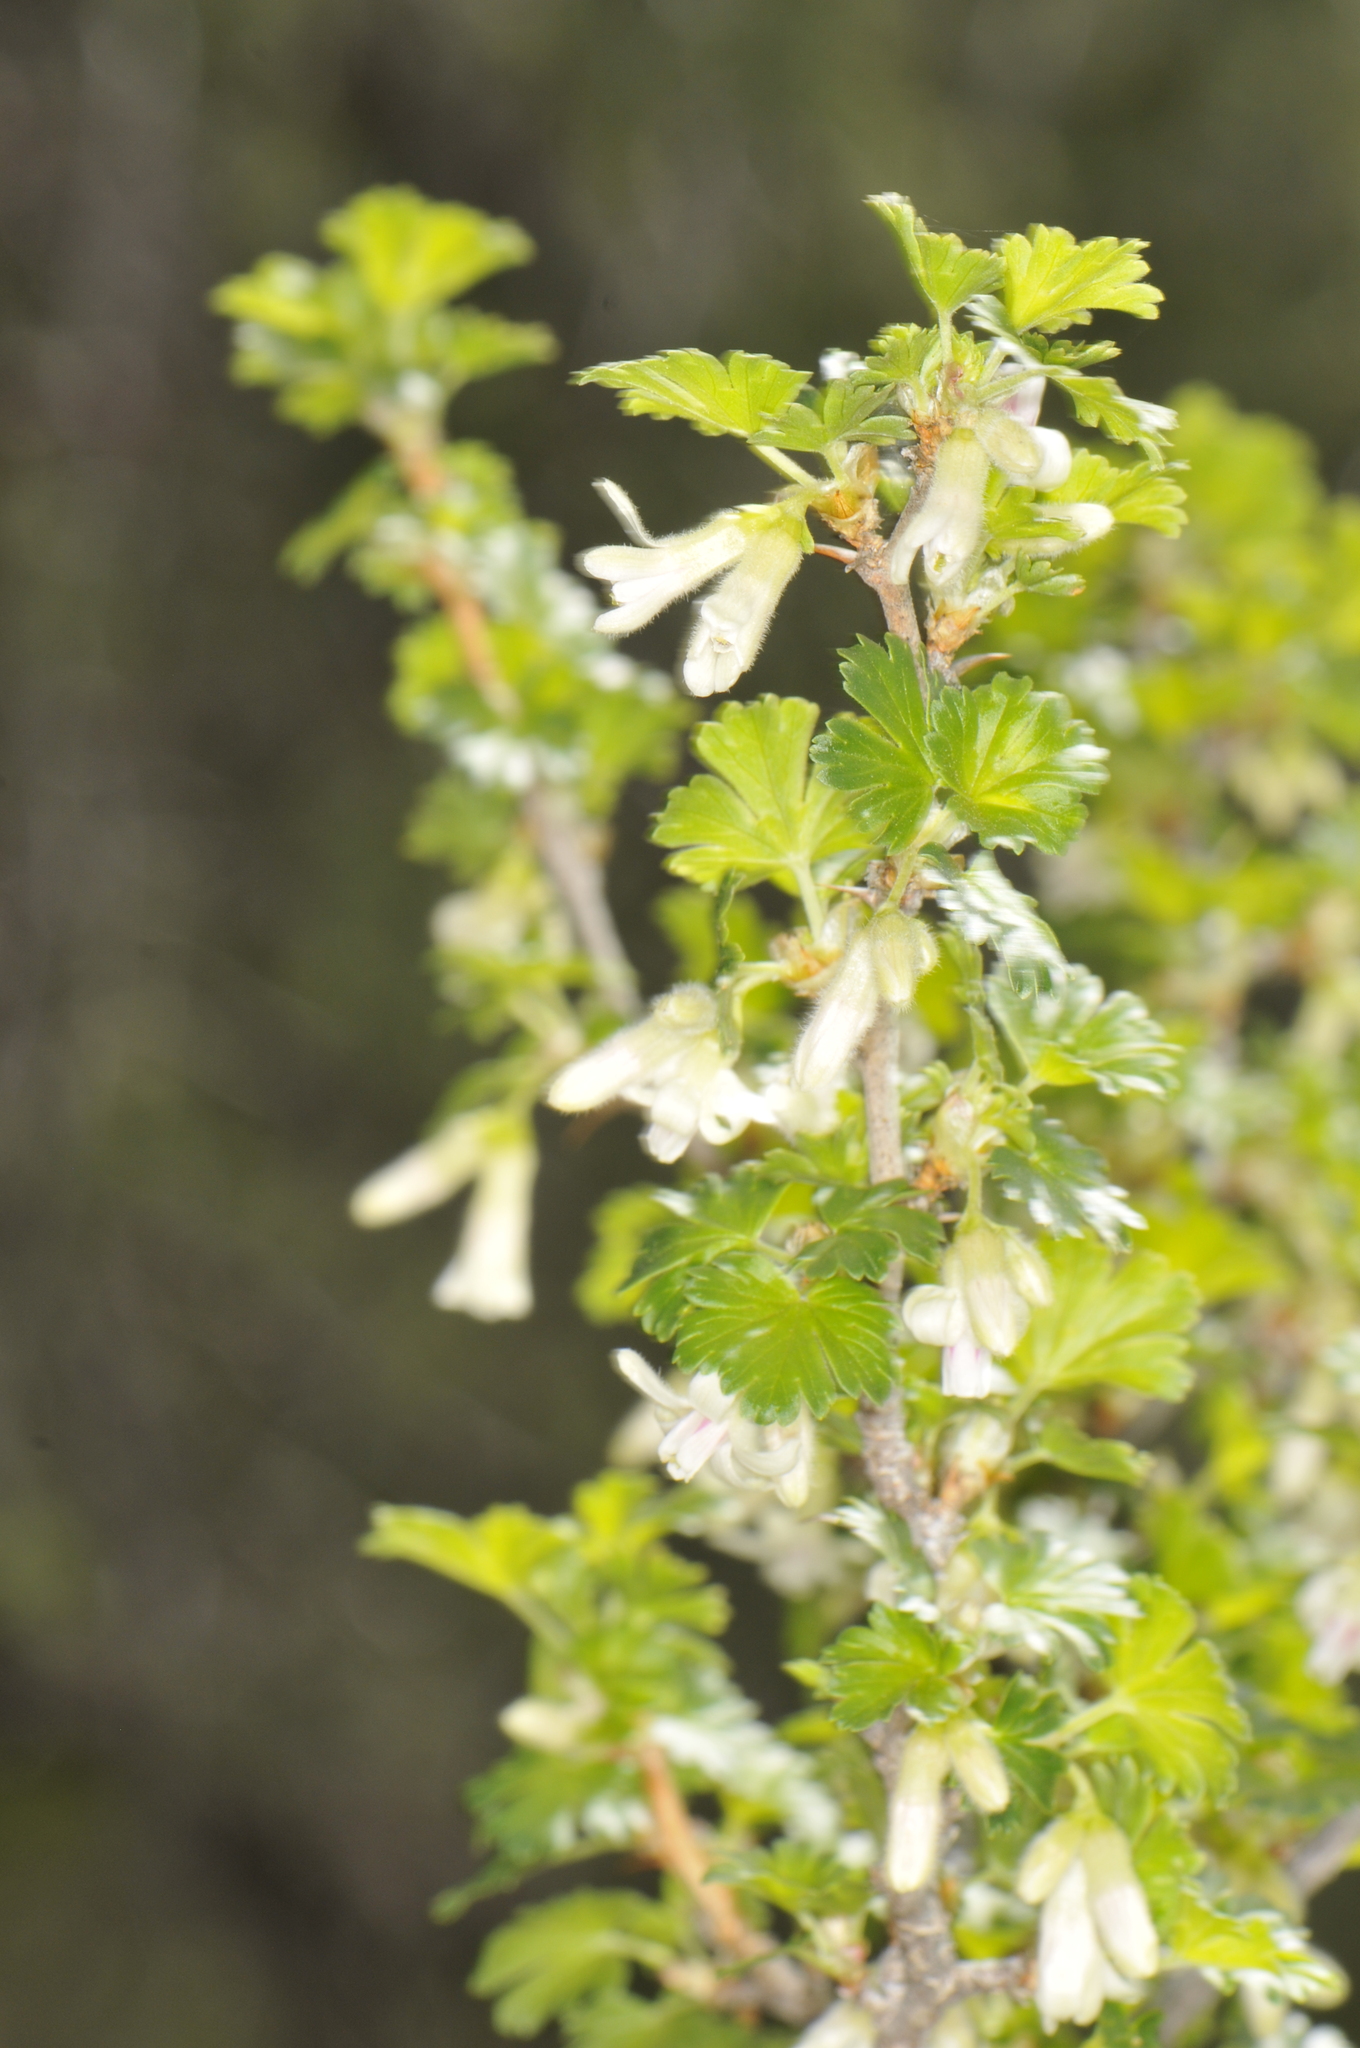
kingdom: Plantae
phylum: Tracheophyta
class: Magnoliopsida
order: Saxifragales
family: Grossulariaceae
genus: Ribes
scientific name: Ribes leptanthum
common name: Trumpet gooseberry
